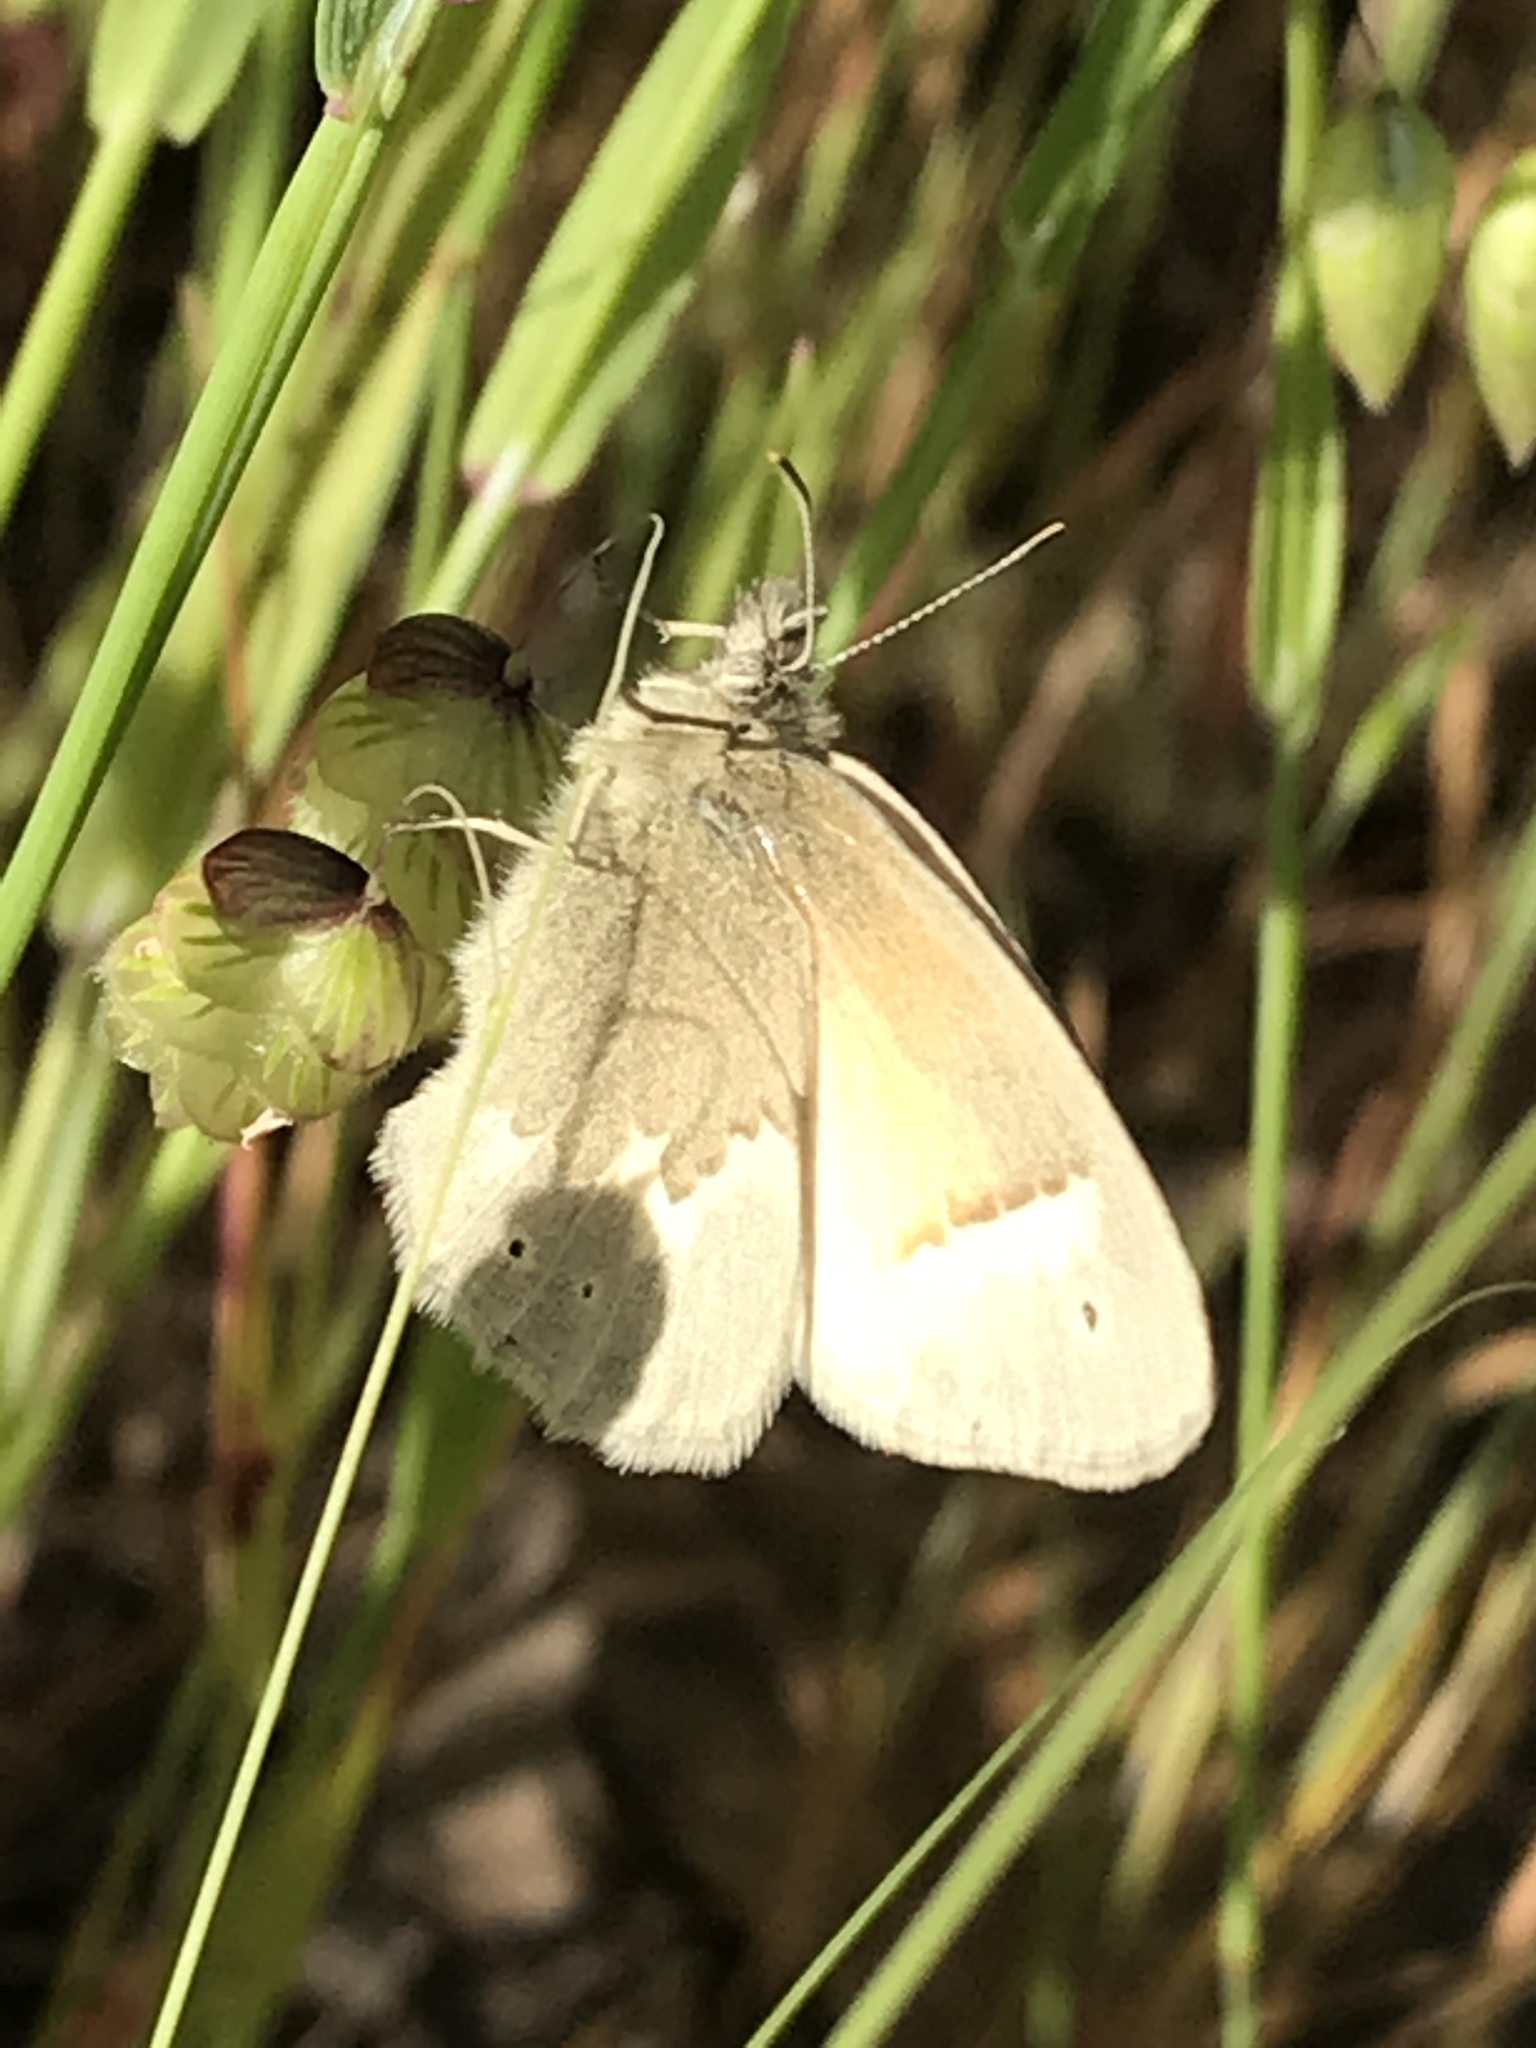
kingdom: Animalia
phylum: Arthropoda
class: Insecta
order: Lepidoptera
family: Nymphalidae
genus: Coenonympha
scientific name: Coenonympha california
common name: Common ringlet
